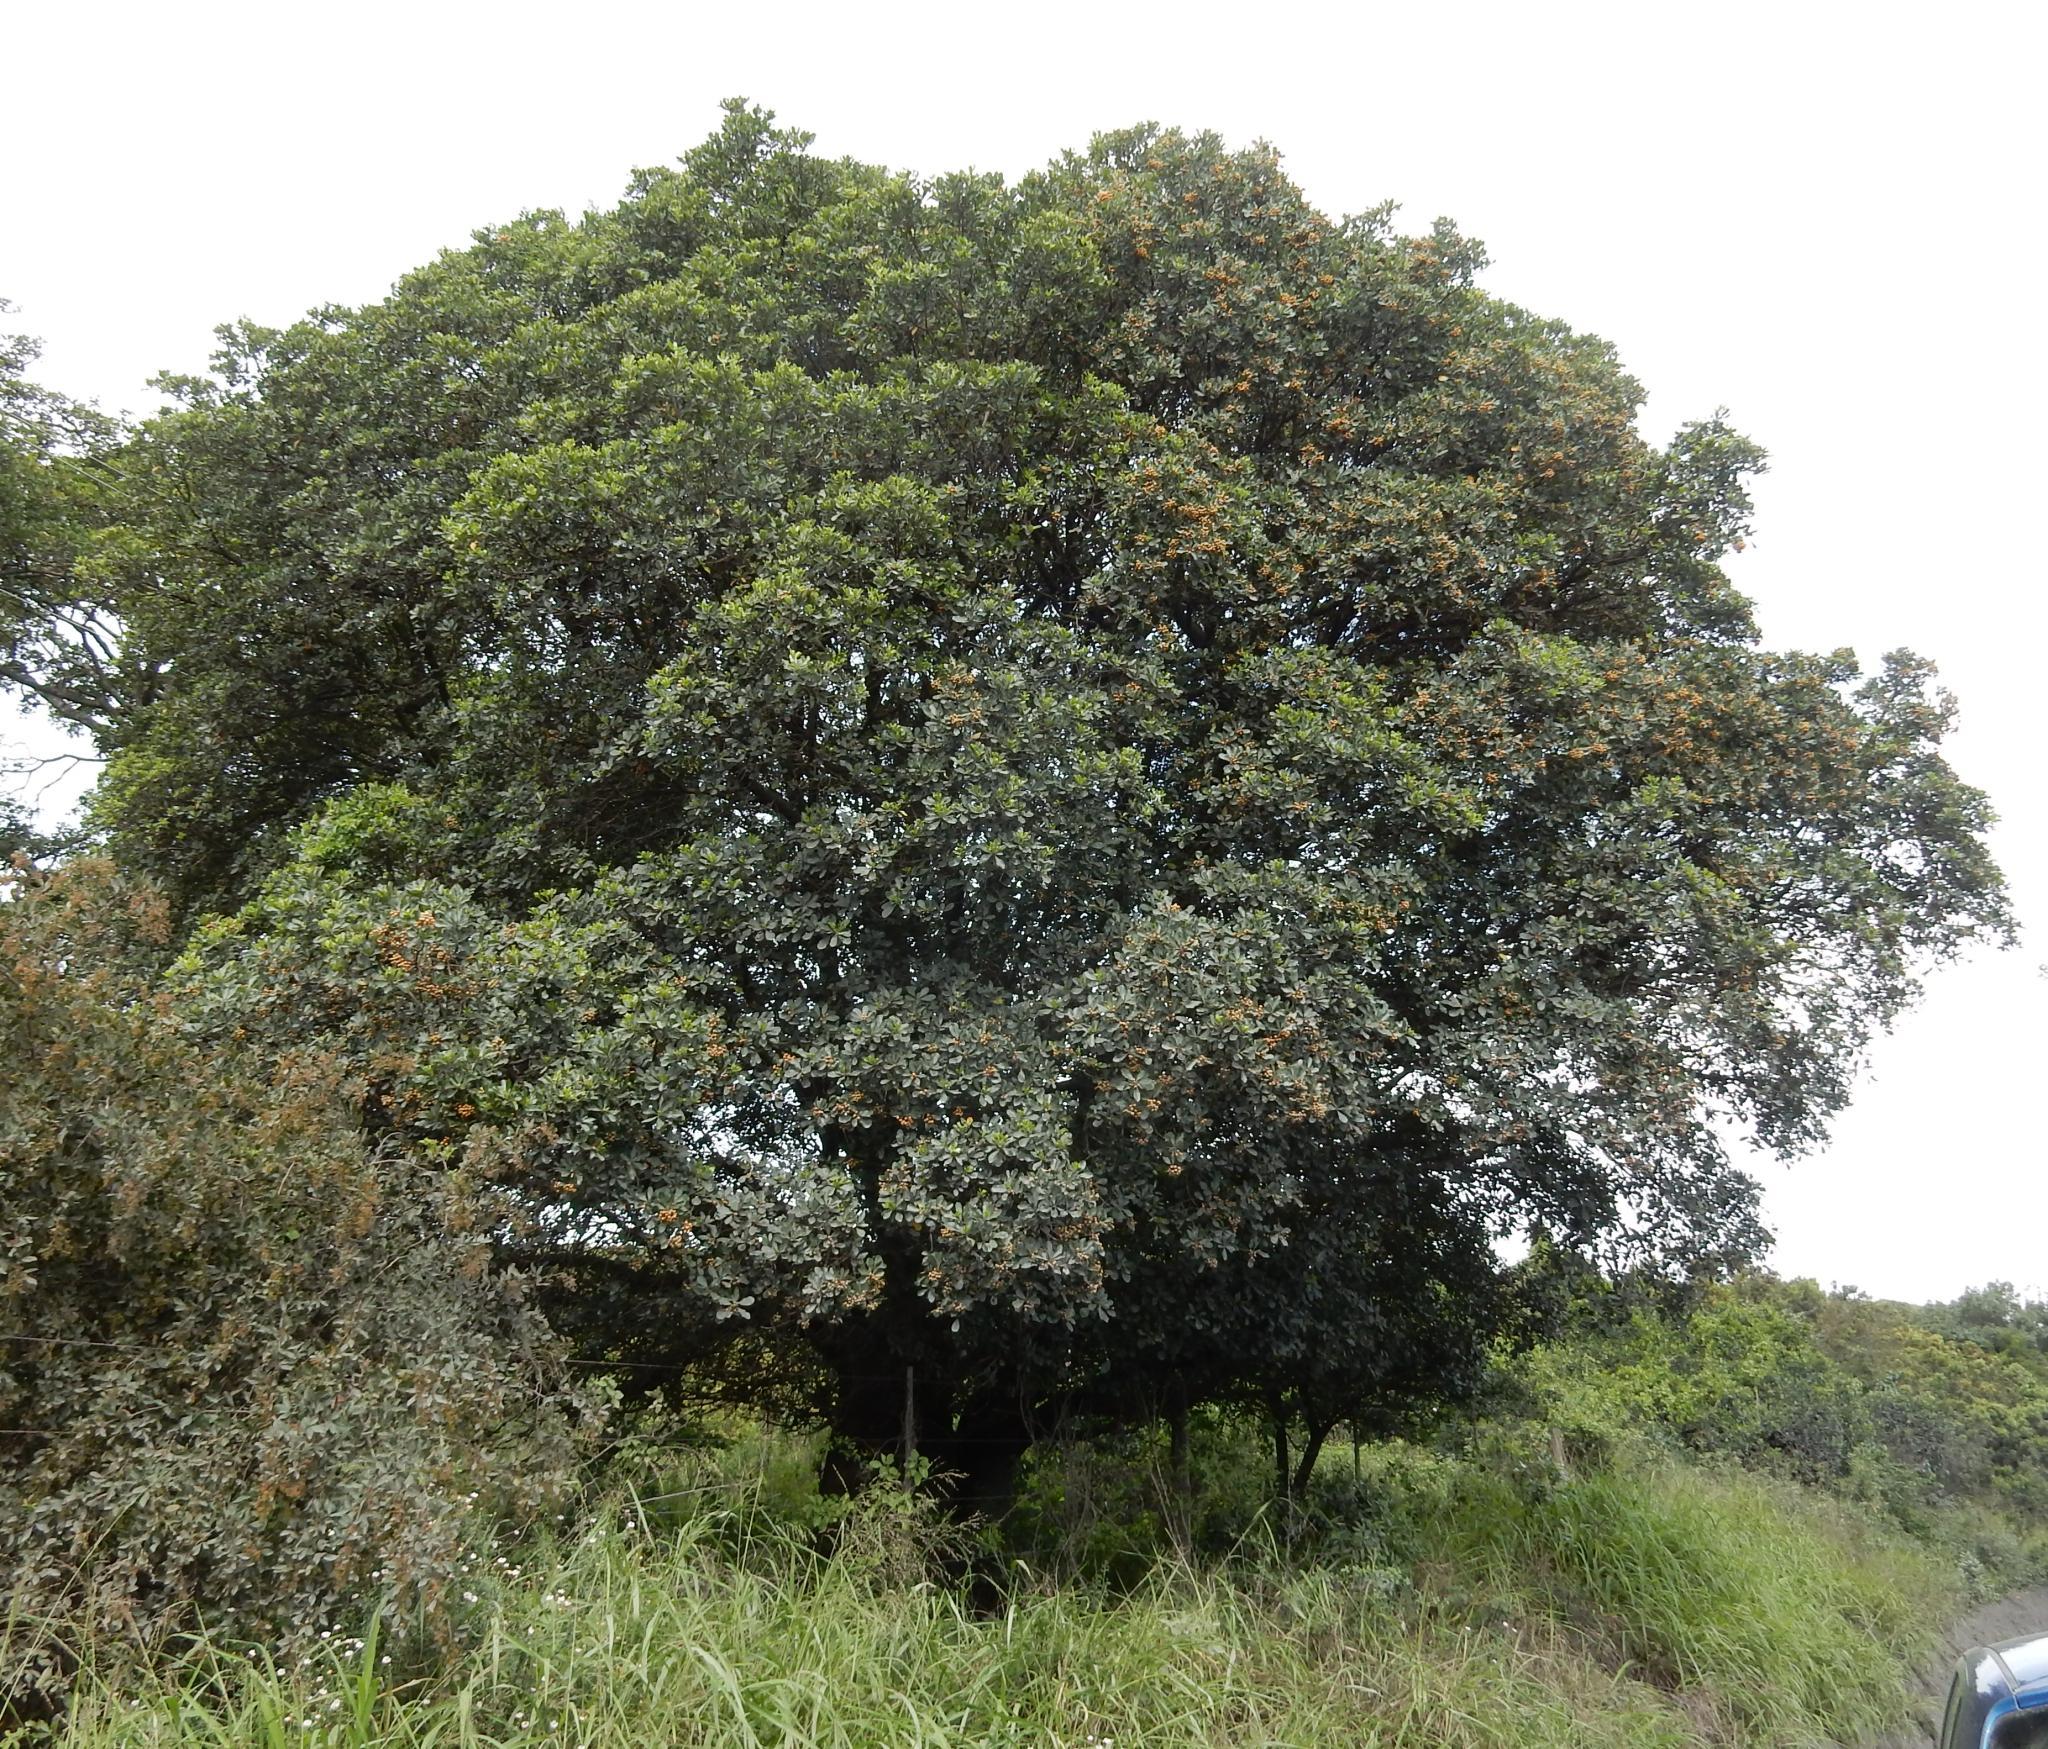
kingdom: Plantae
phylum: Tracheophyta
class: Magnoliopsida
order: Apiales
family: Pittosporaceae
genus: Pittosporum
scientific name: Pittosporum viridiflorum
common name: Cape cheesewood
